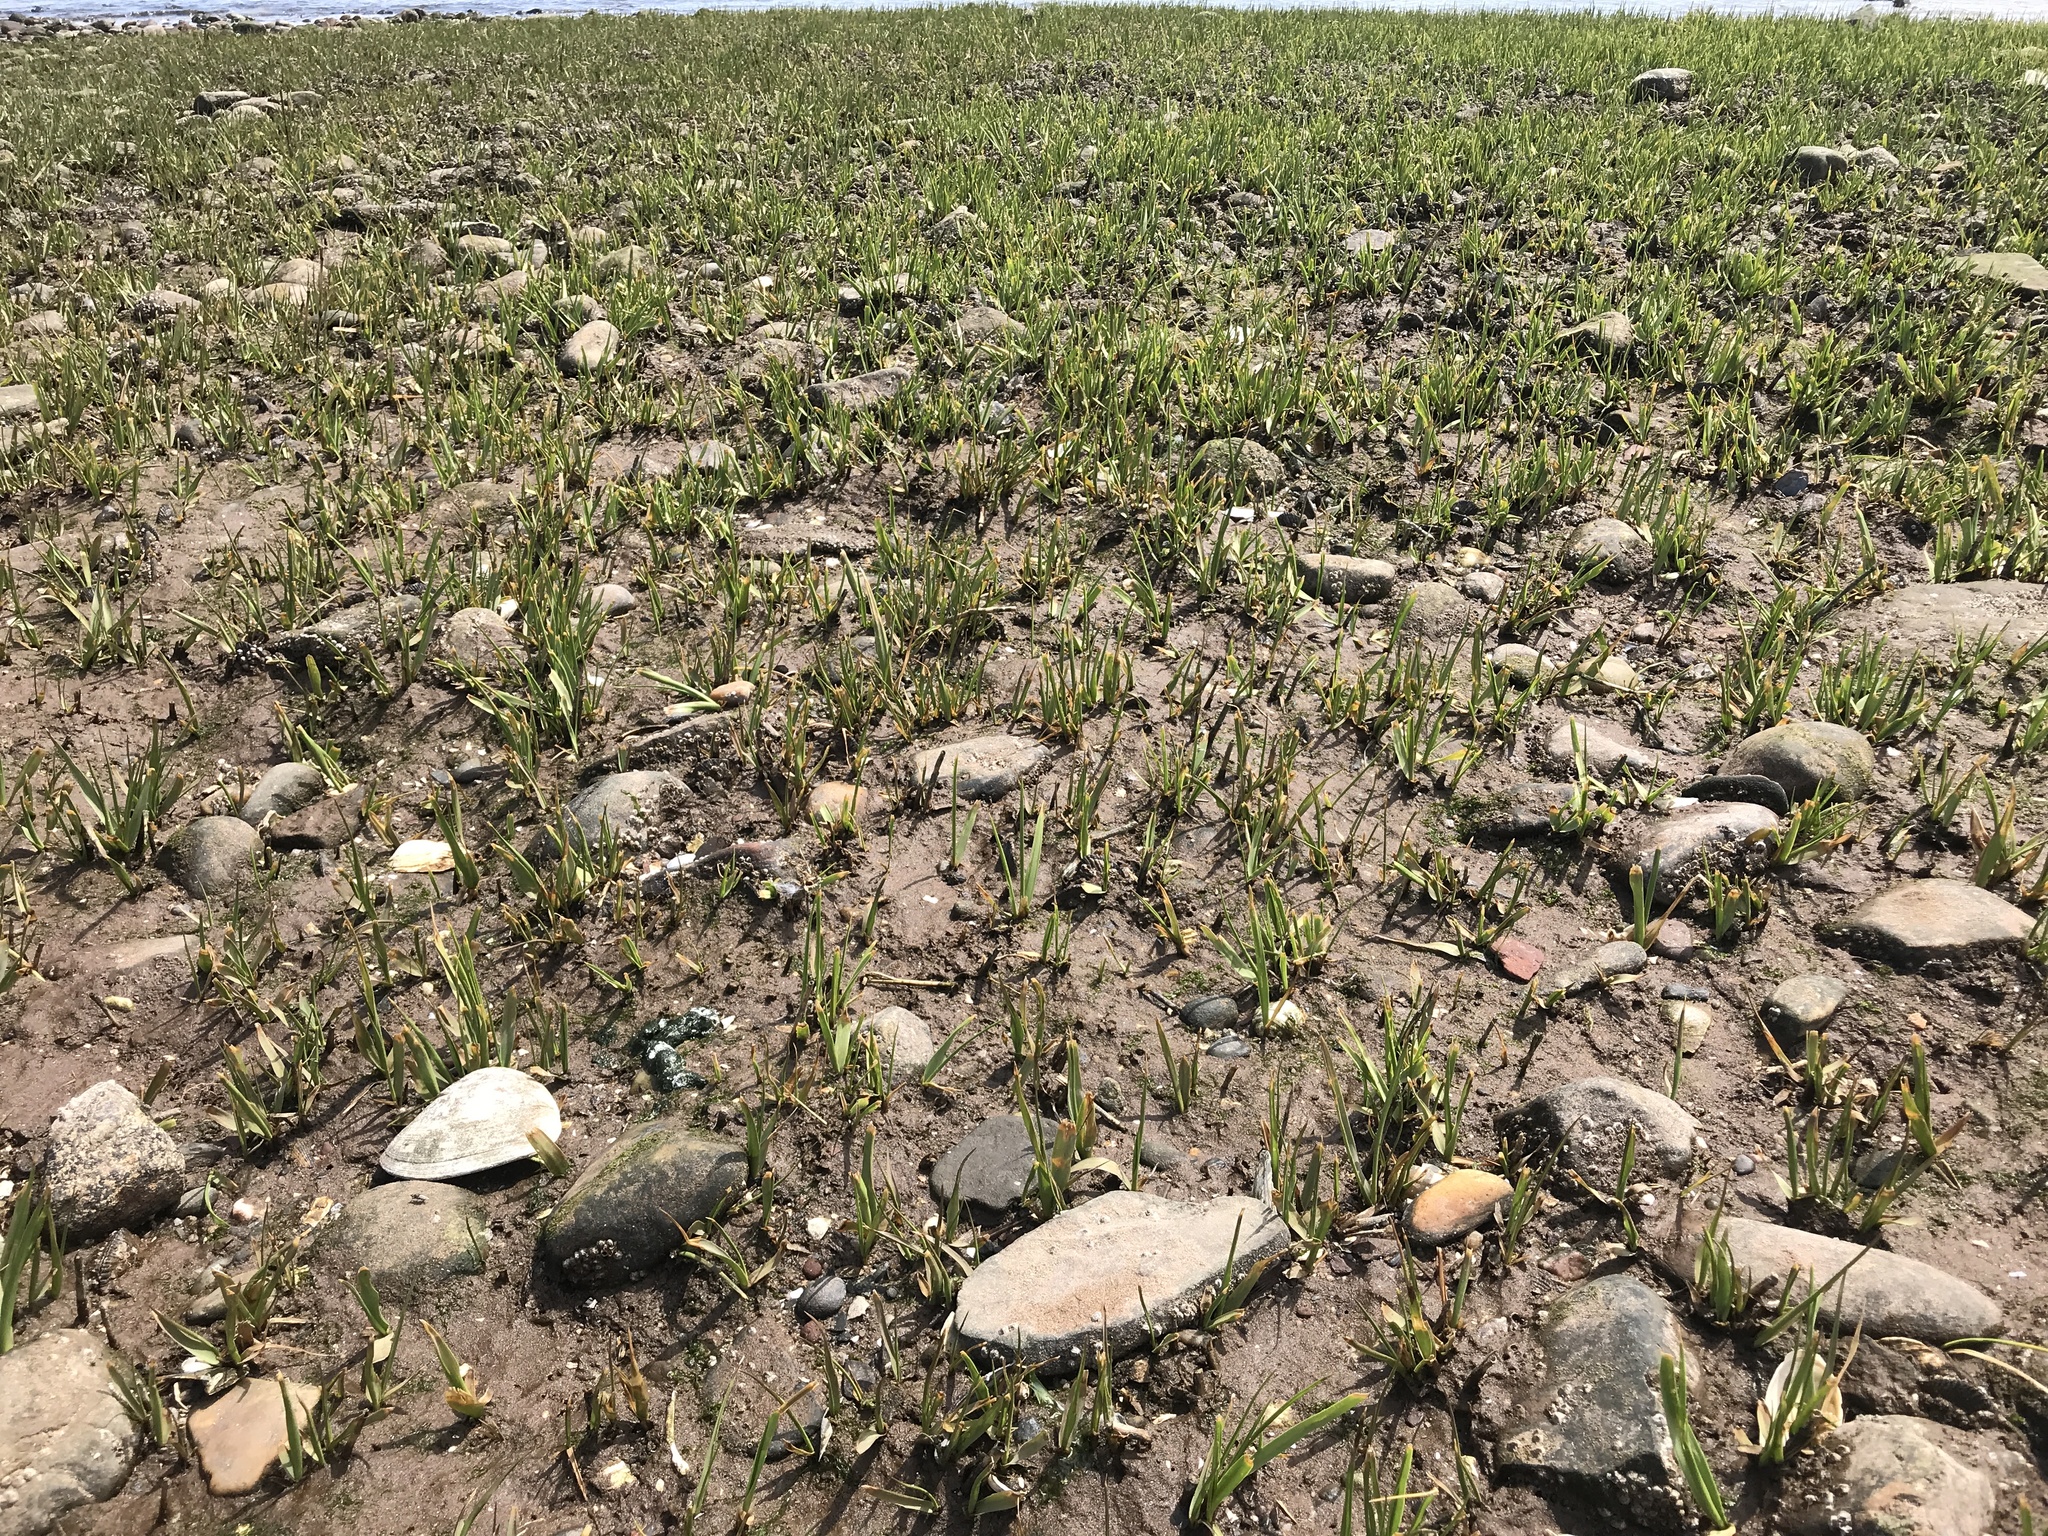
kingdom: Plantae
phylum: Tracheophyta
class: Liliopsida
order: Poales
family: Poaceae
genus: Sporobolus
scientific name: Sporobolus alterniflorus
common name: Atlantic cordgrass
